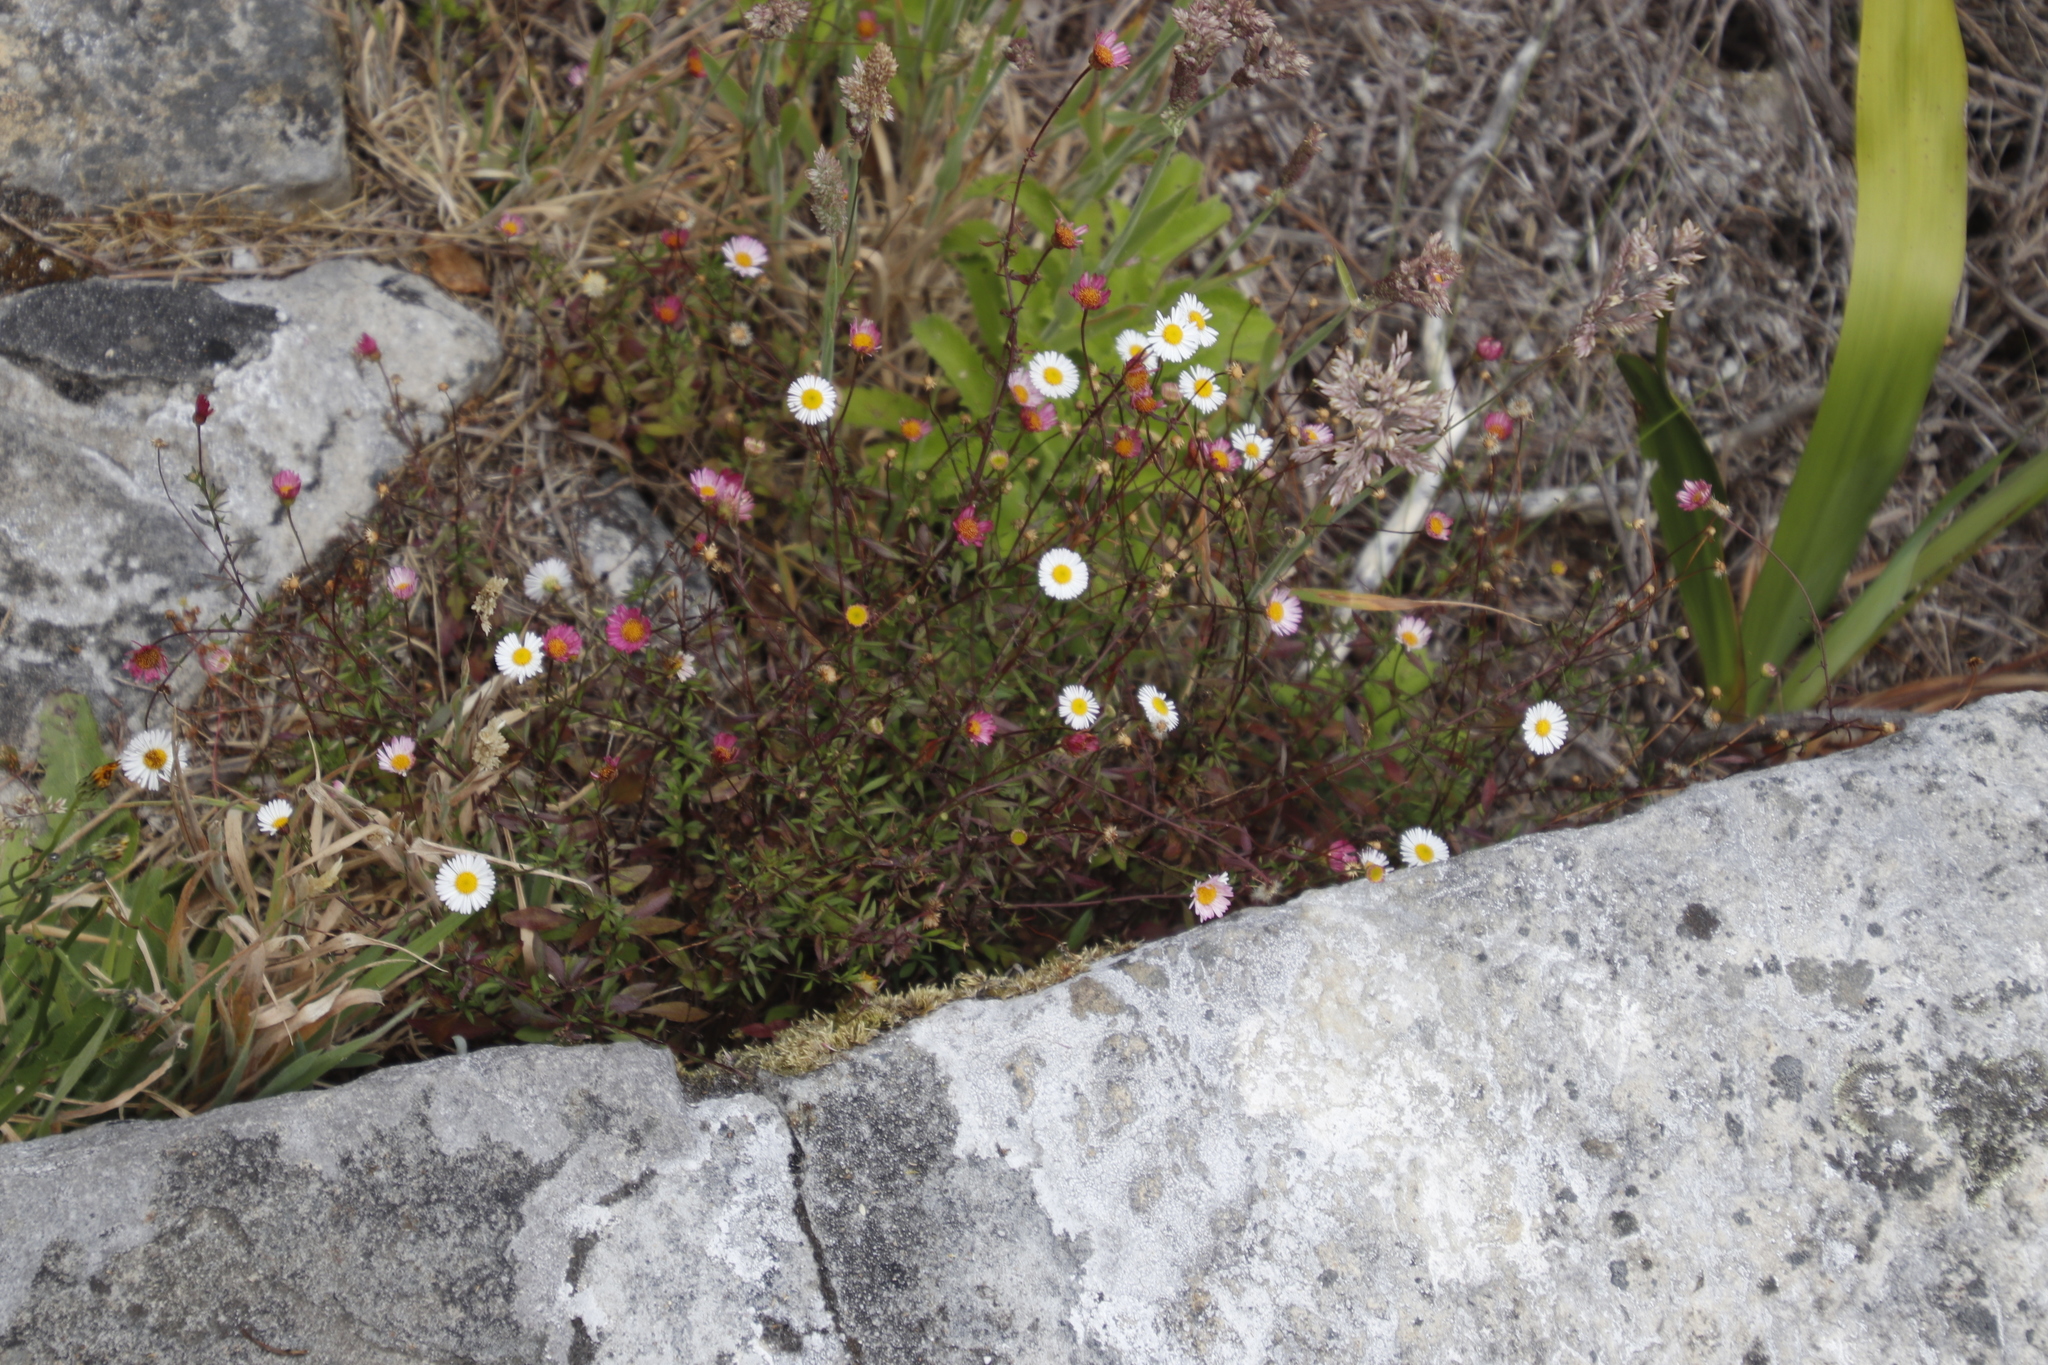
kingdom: Plantae
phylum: Tracheophyta
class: Magnoliopsida
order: Asterales
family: Asteraceae
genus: Erigeron
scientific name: Erigeron karvinskianus
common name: Mexican fleabane
